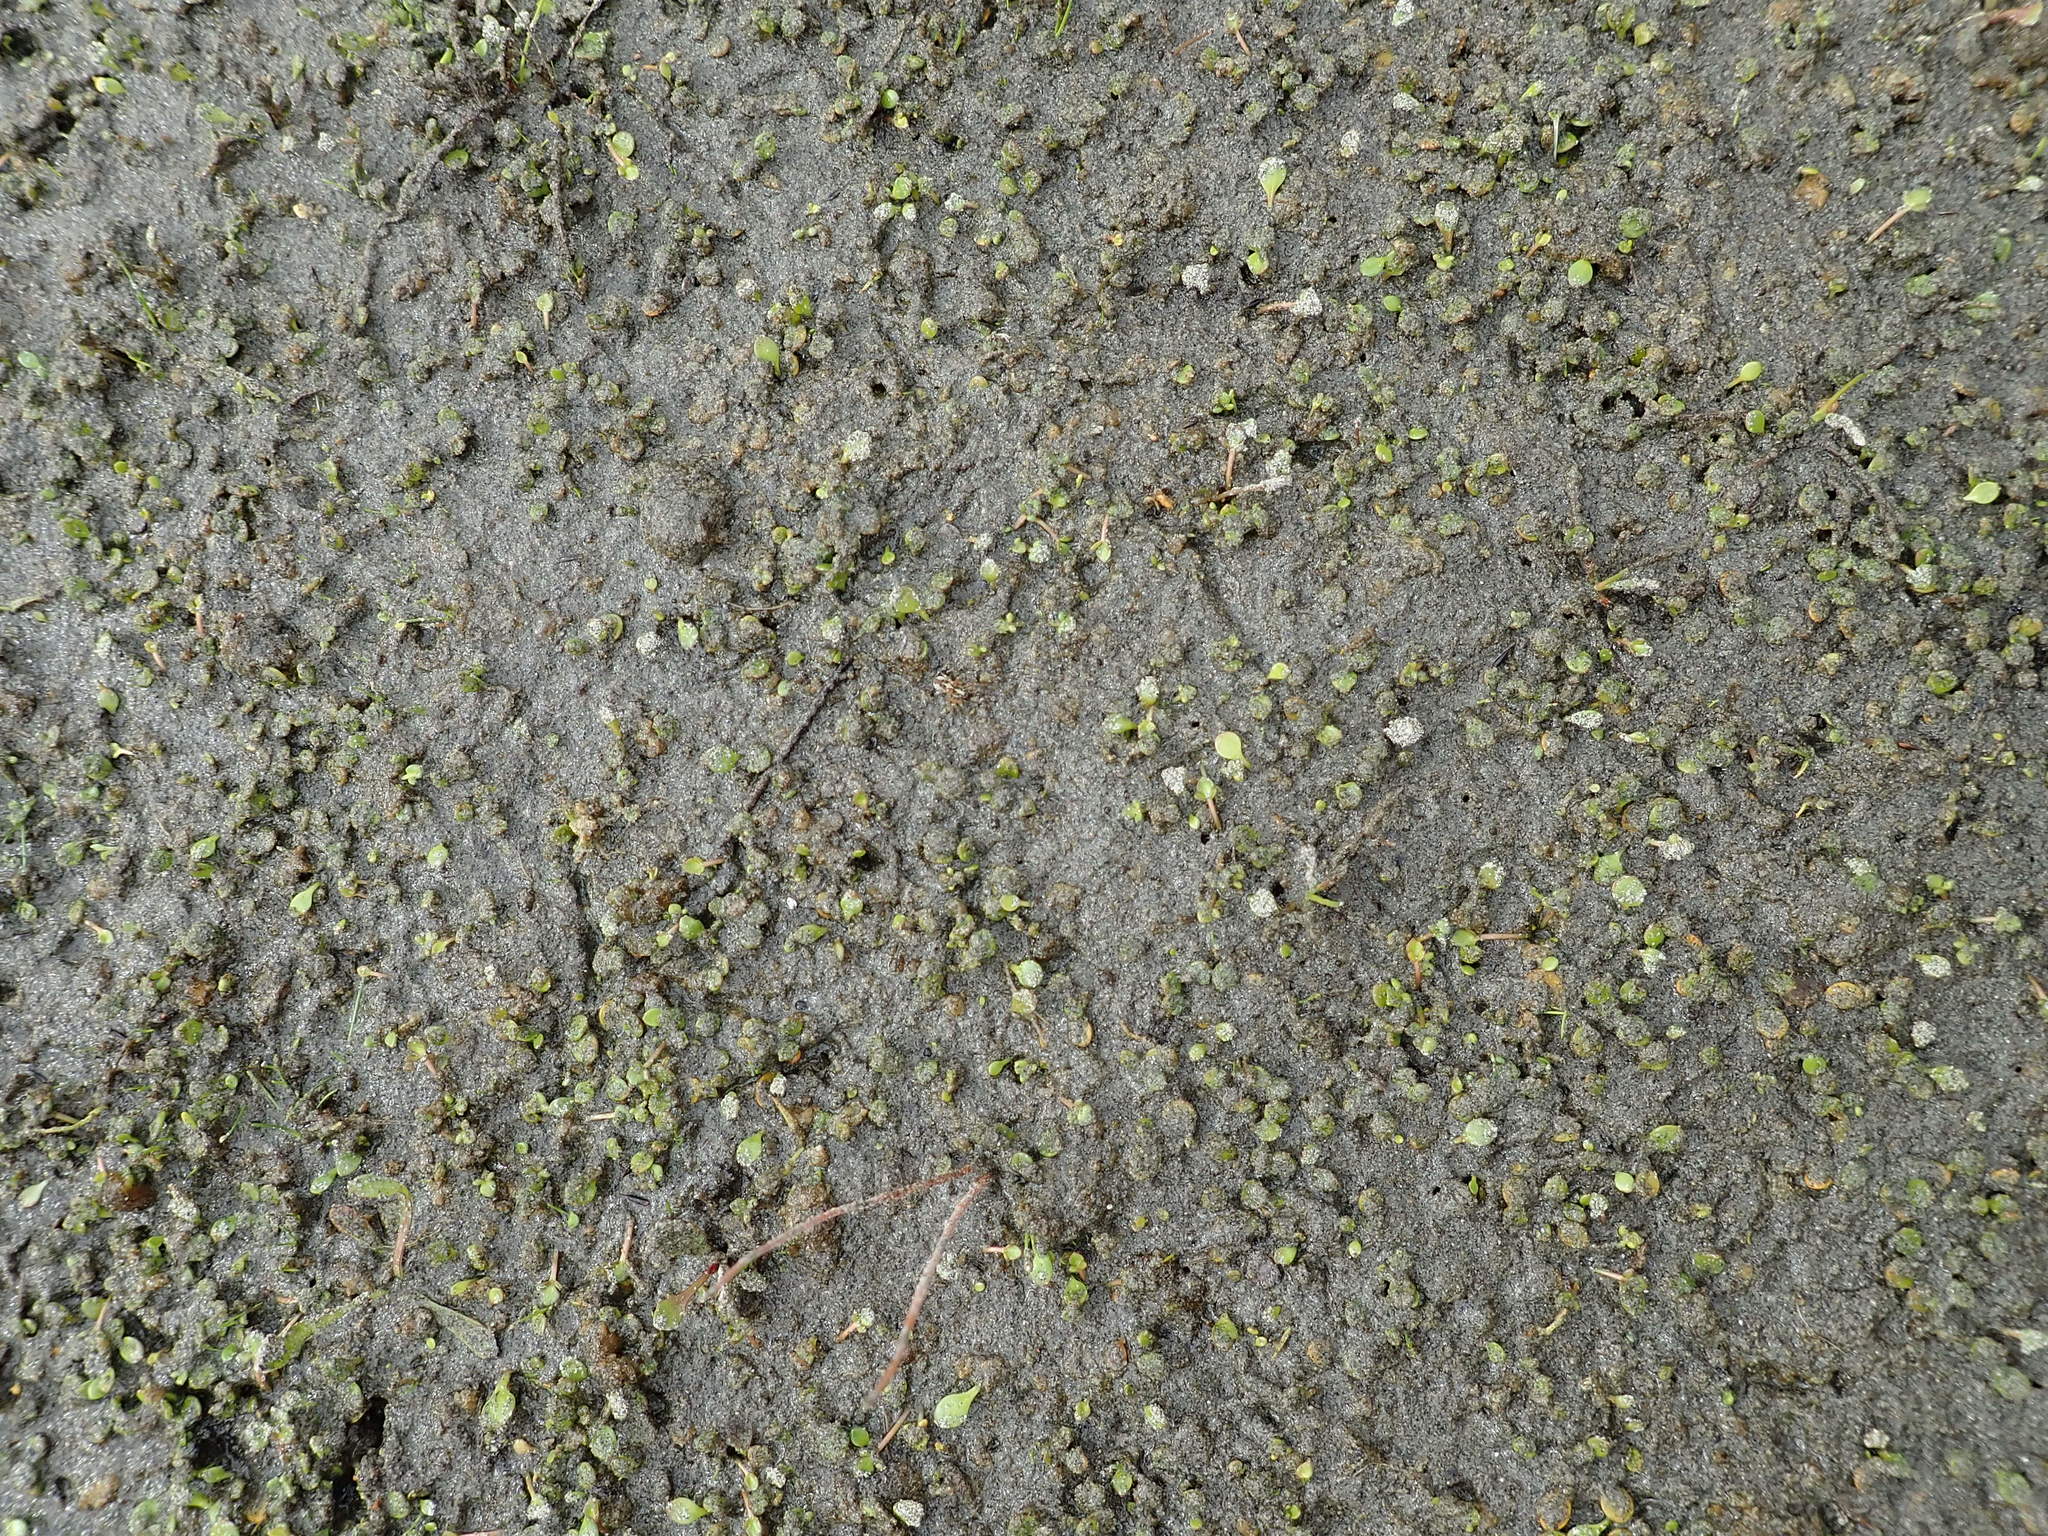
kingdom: Animalia
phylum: Arthropoda
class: Arachnida
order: Araneae
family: Lycosidae
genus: Anoteropsis
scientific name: Anoteropsis hilaris
